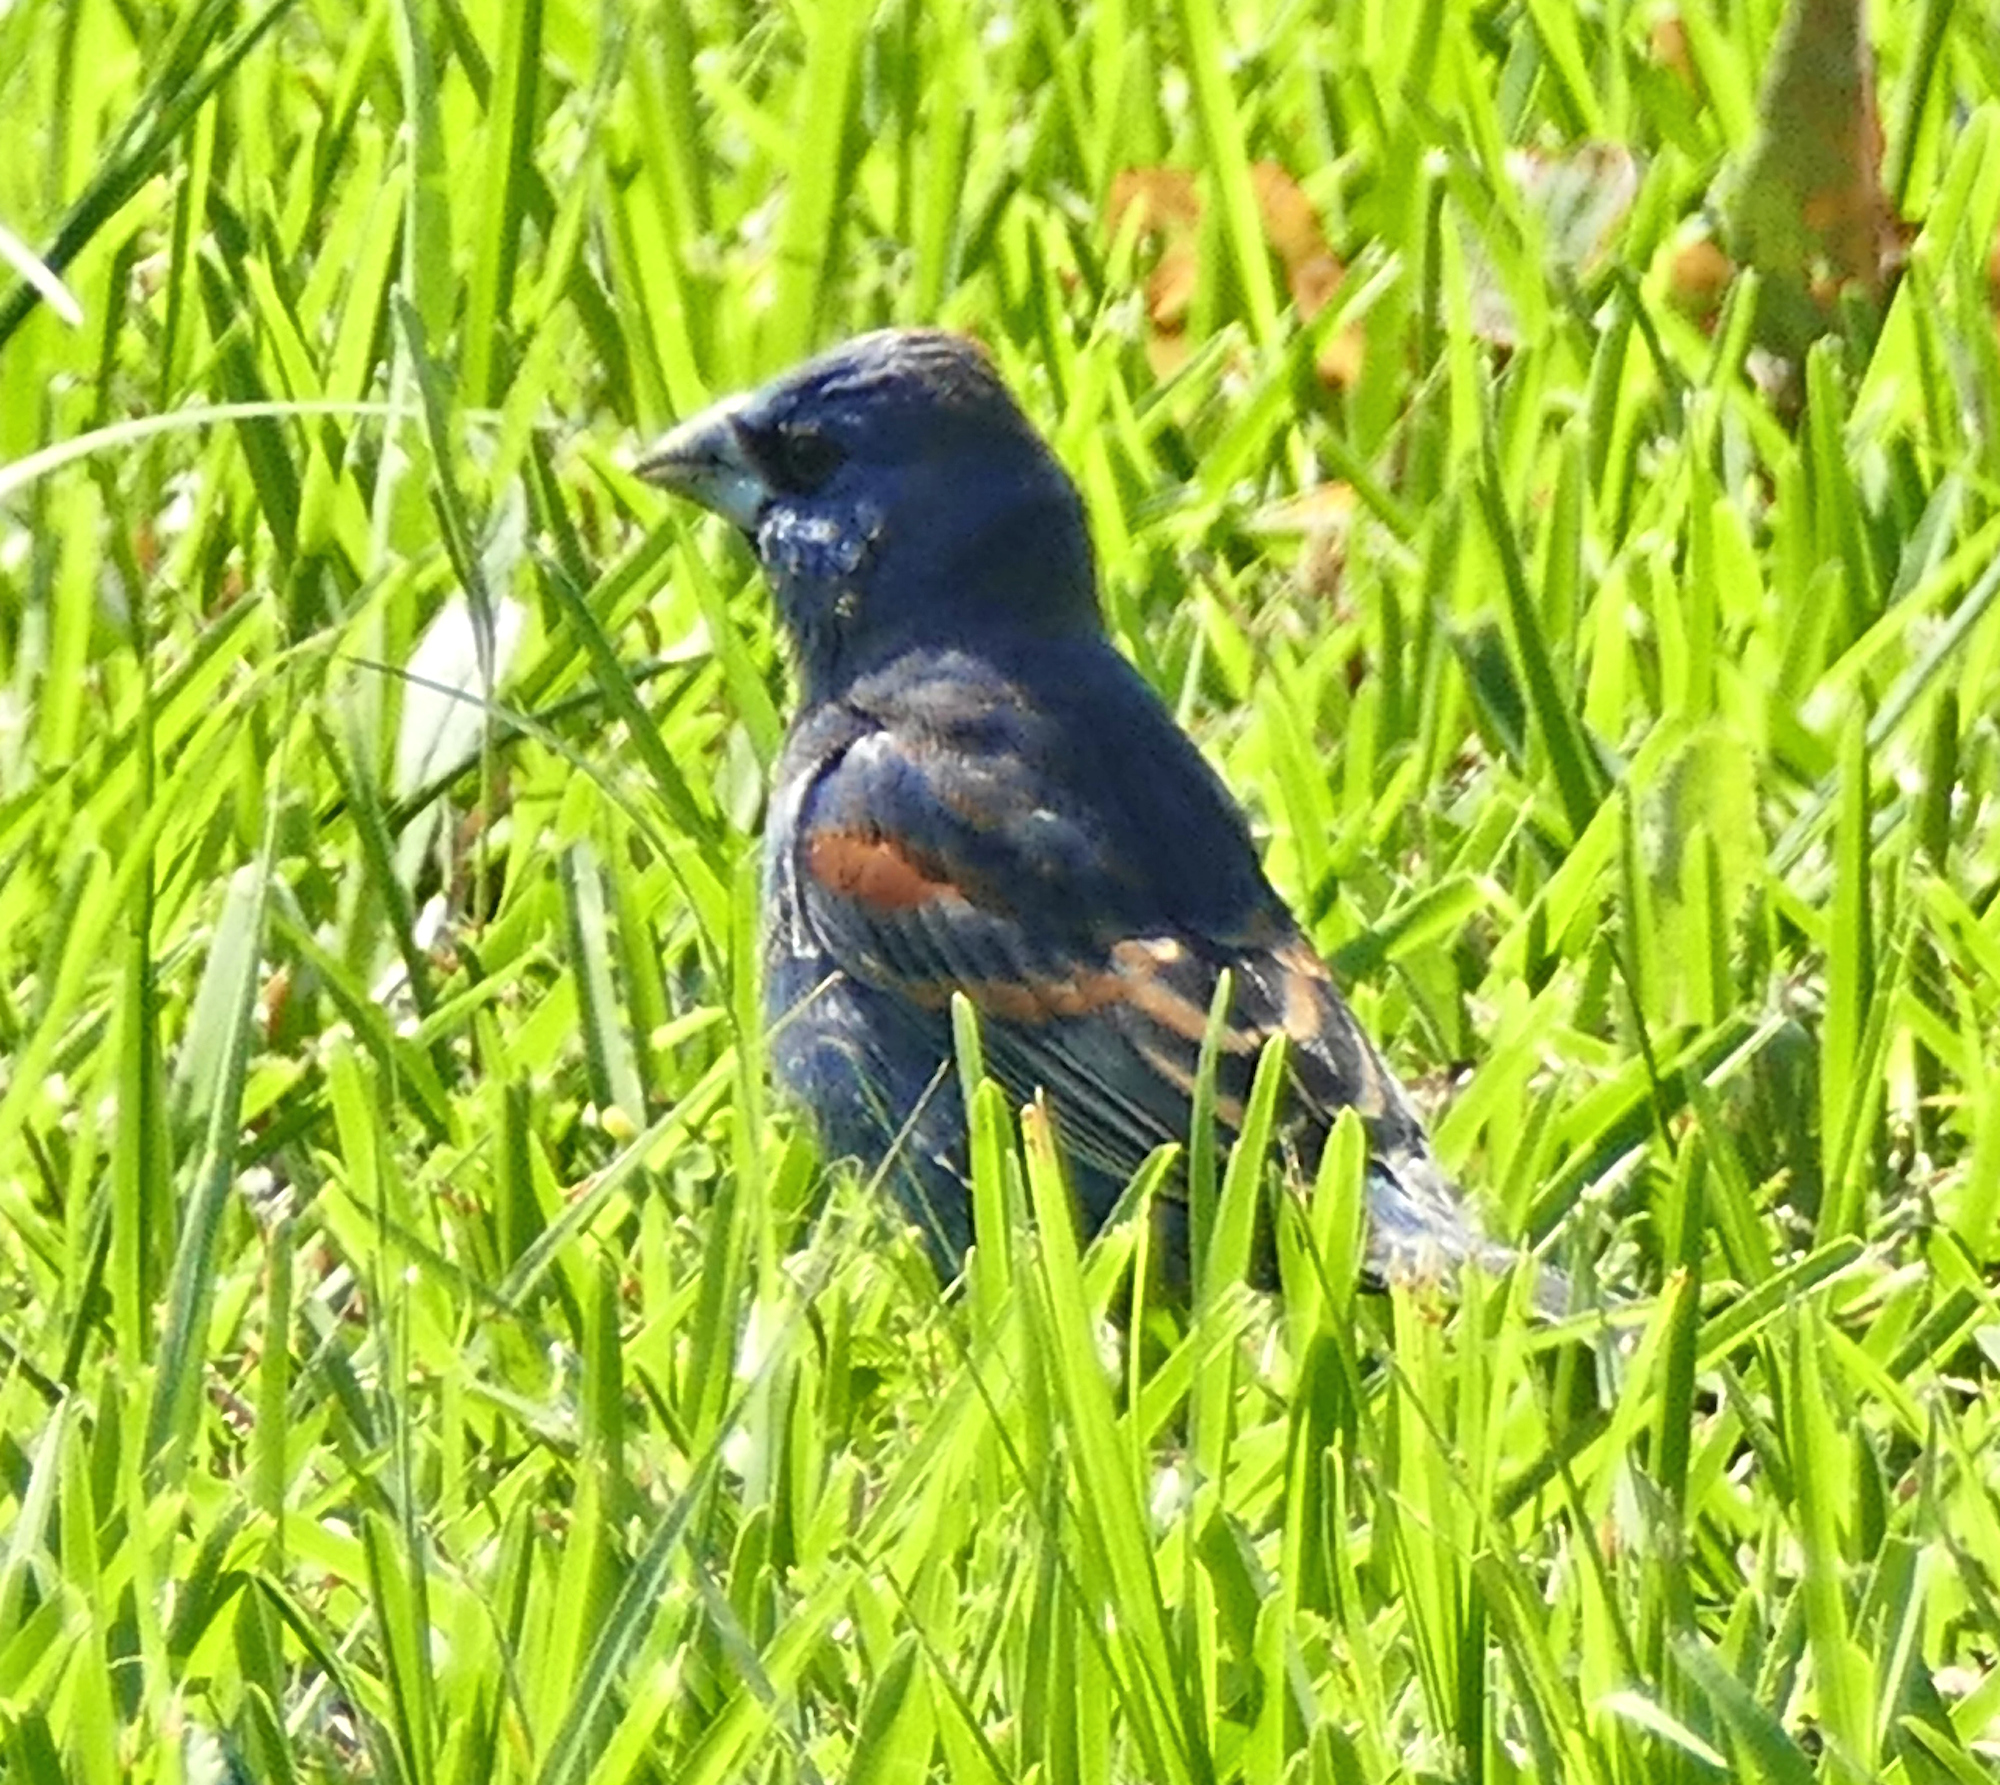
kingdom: Animalia
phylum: Chordata
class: Aves
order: Passeriformes
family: Cardinalidae
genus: Passerina
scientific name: Passerina caerulea
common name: Blue grosbeak
